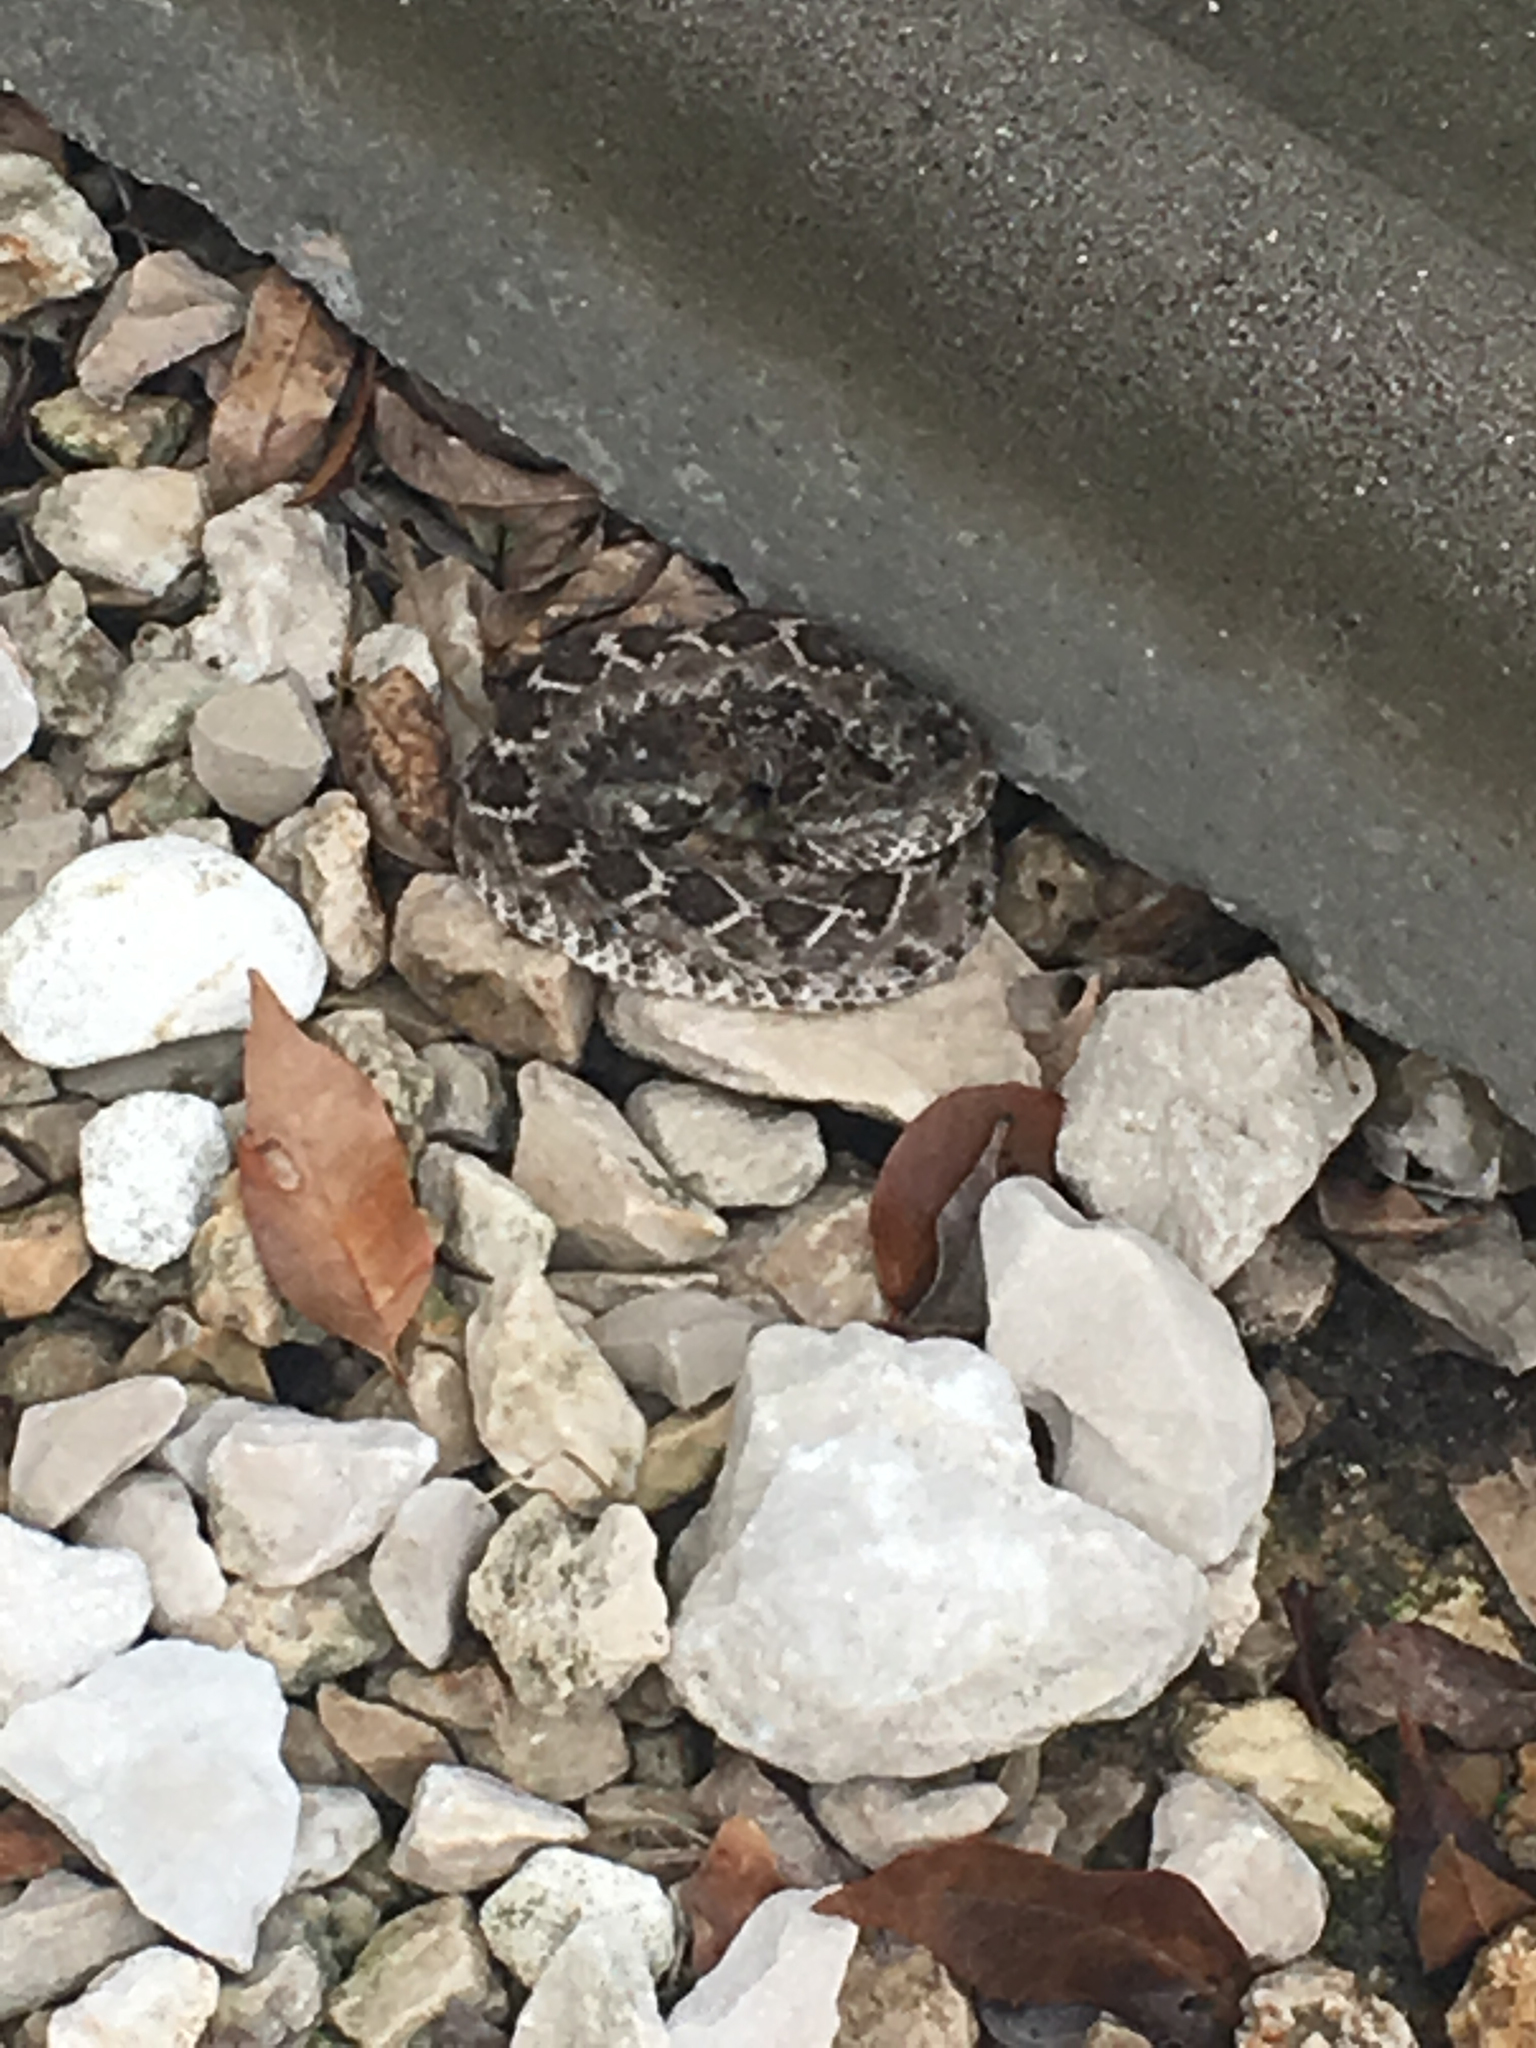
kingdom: Animalia
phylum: Chordata
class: Squamata
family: Viperidae
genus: Crotalus
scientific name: Crotalus atrox
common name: Western diamond-backed rattlesnake
